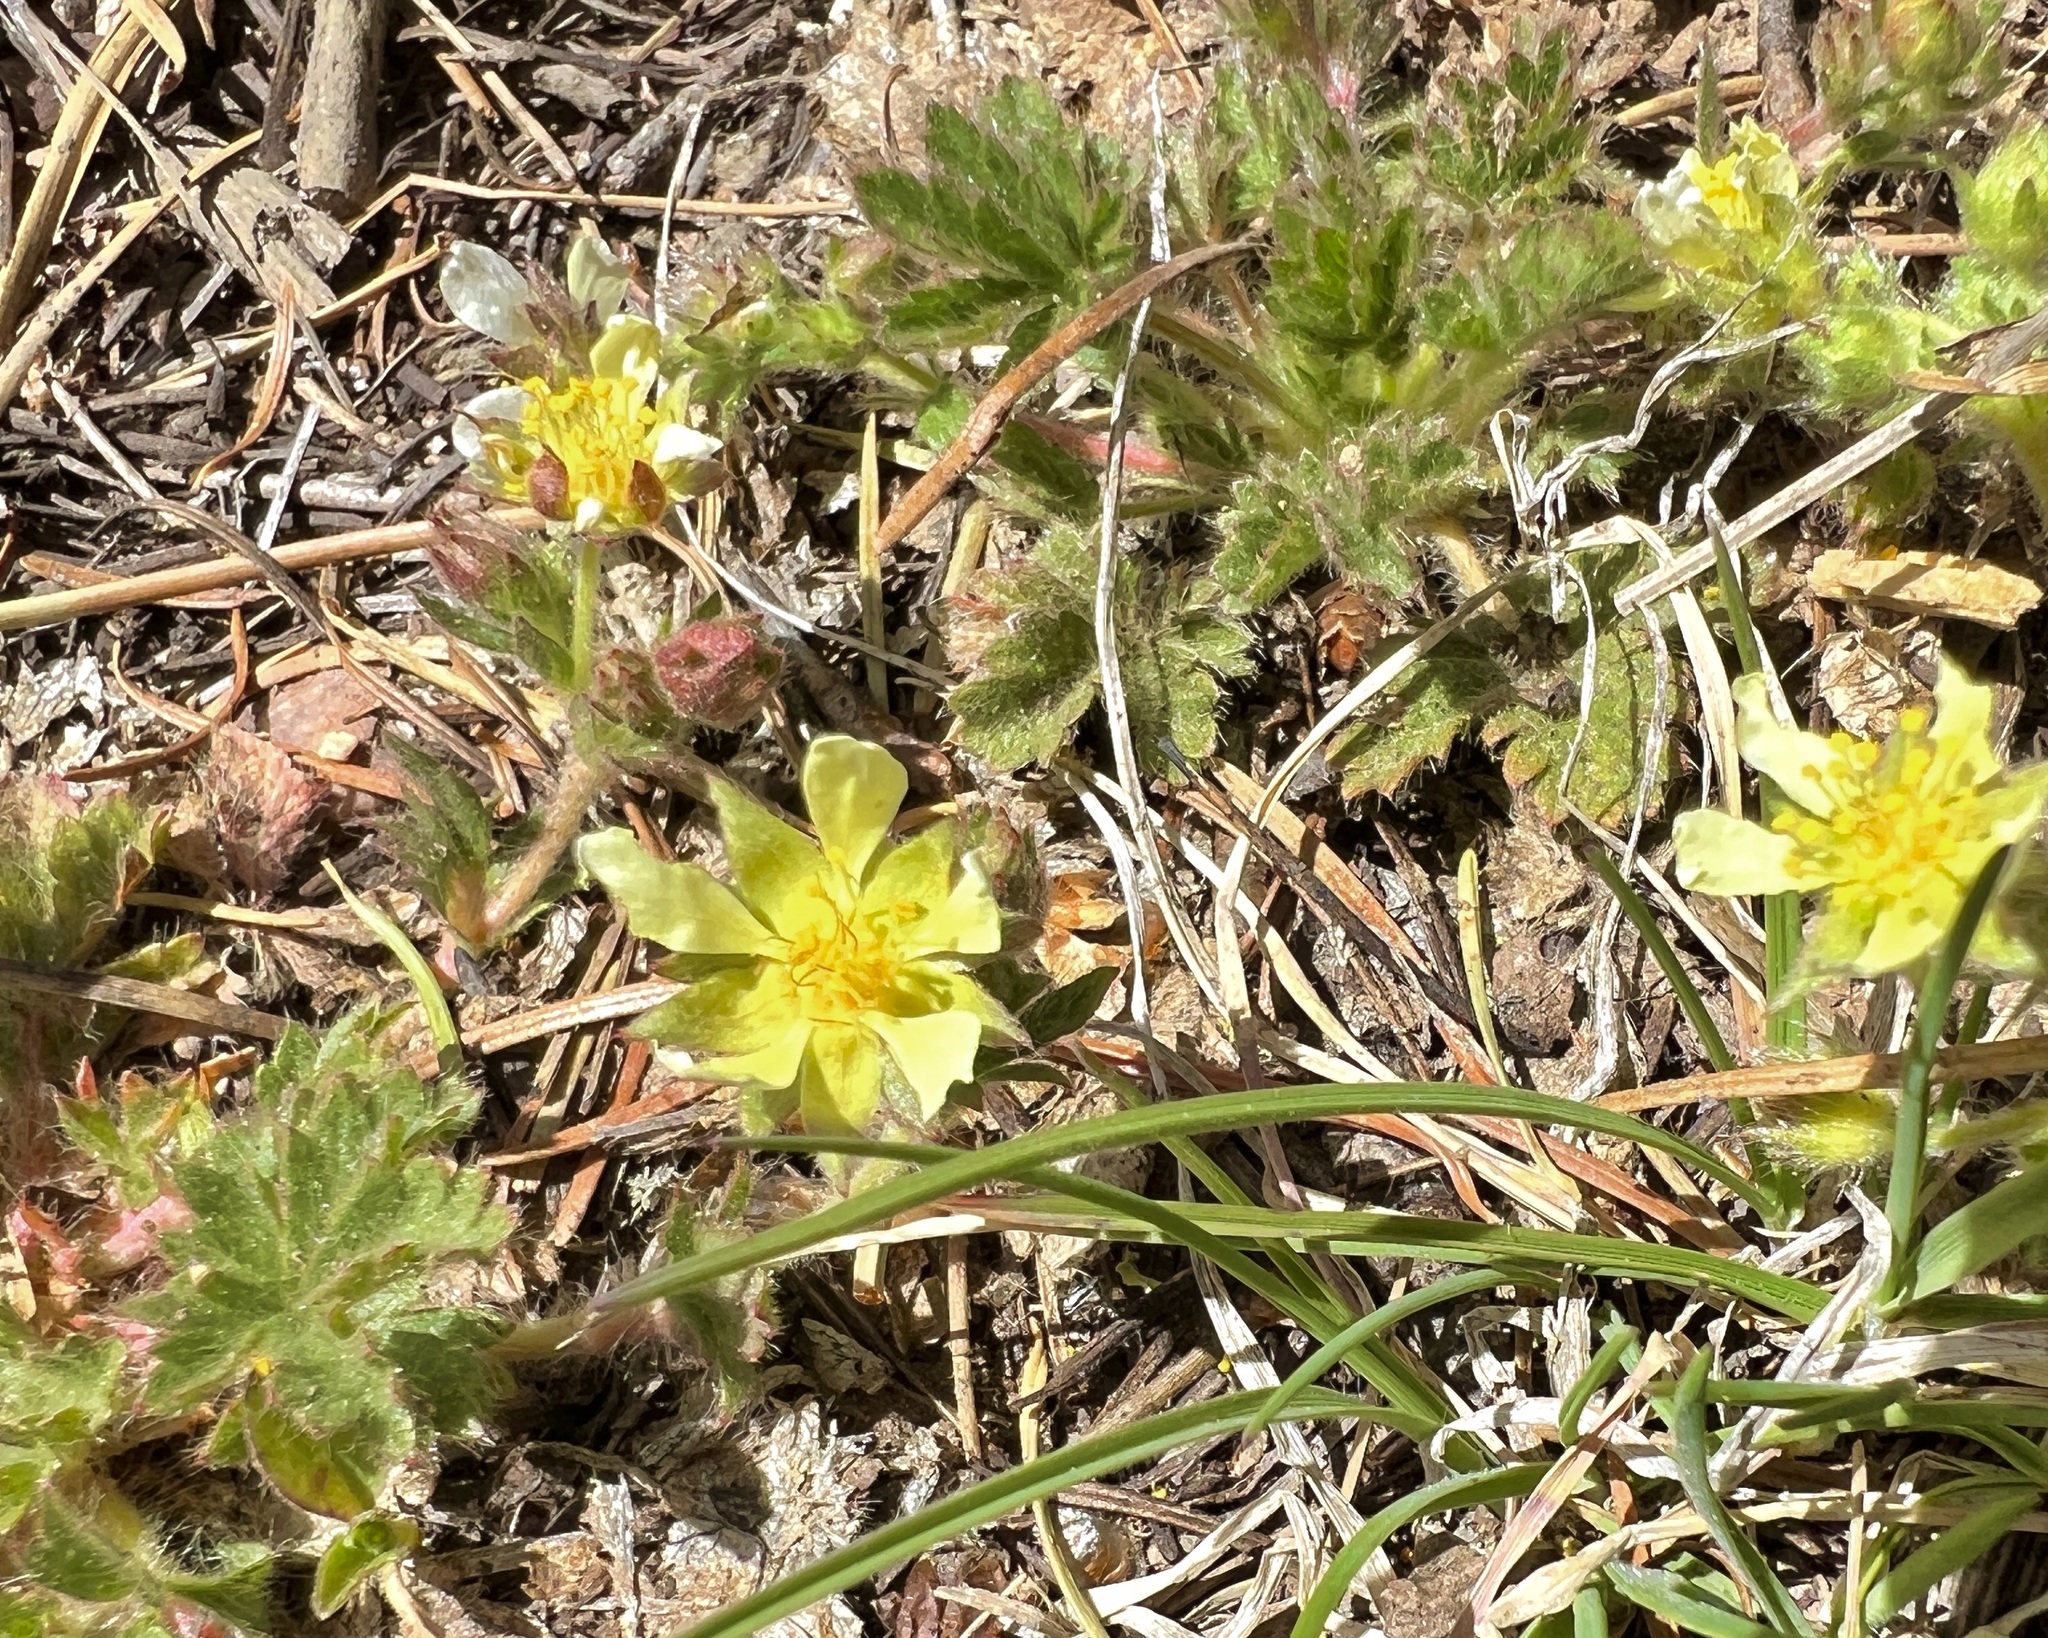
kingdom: Plantae
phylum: Tracheophyta
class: Magnoliopsida
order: Rosales
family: Rosaceae
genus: Potentilla
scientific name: Potentilla subviscosa
